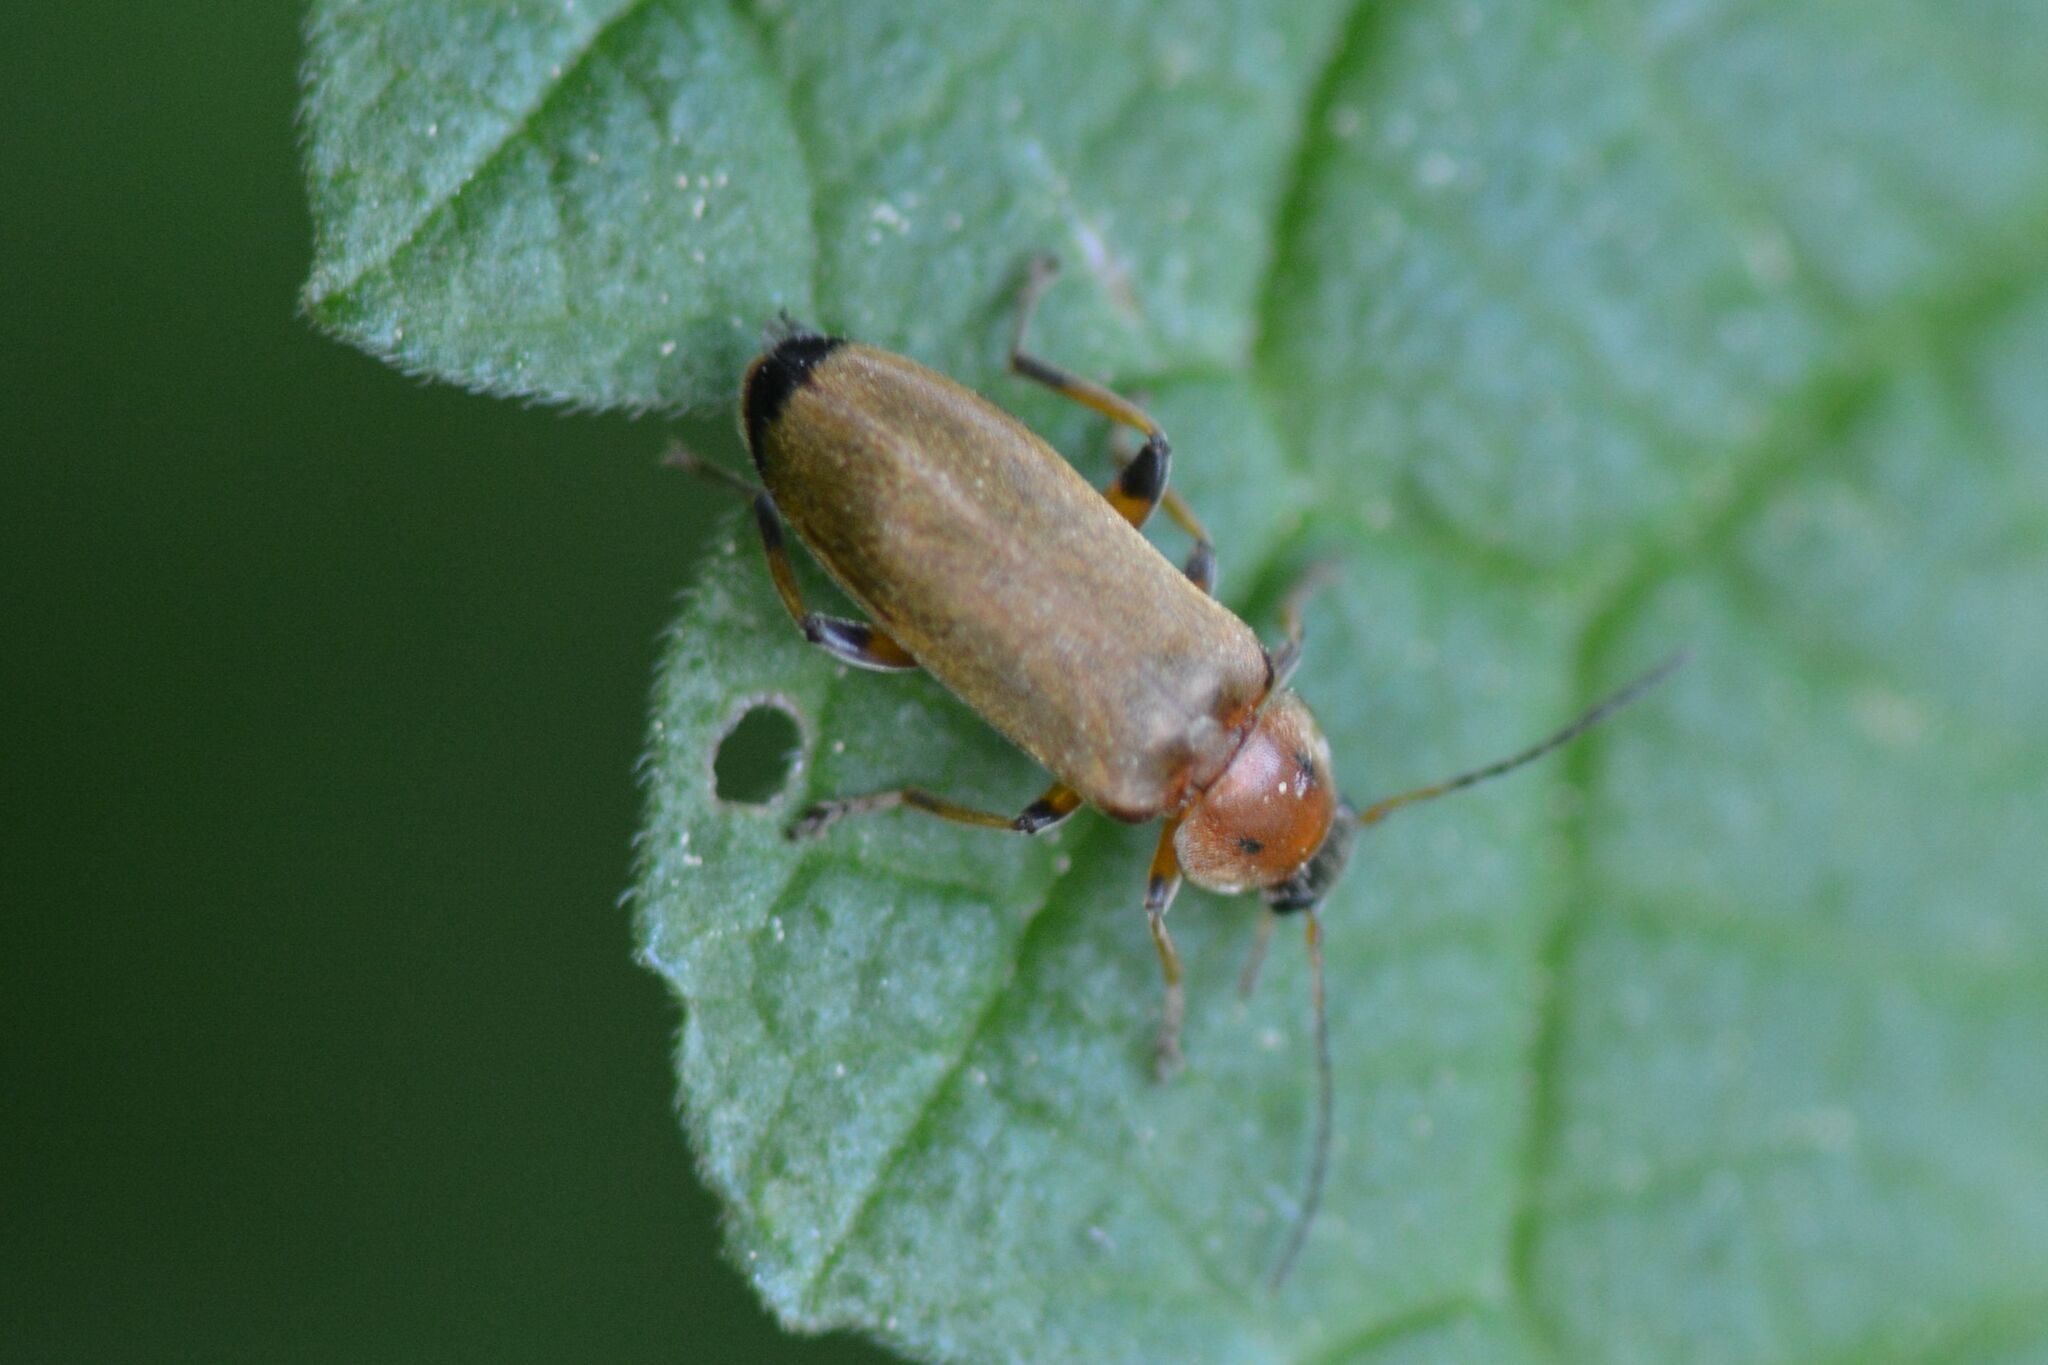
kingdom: Animalia
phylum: Arthropoda
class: Insecta
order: Coleoptera
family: Melandryidae
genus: Osphya
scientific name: Osphya bipunctata
